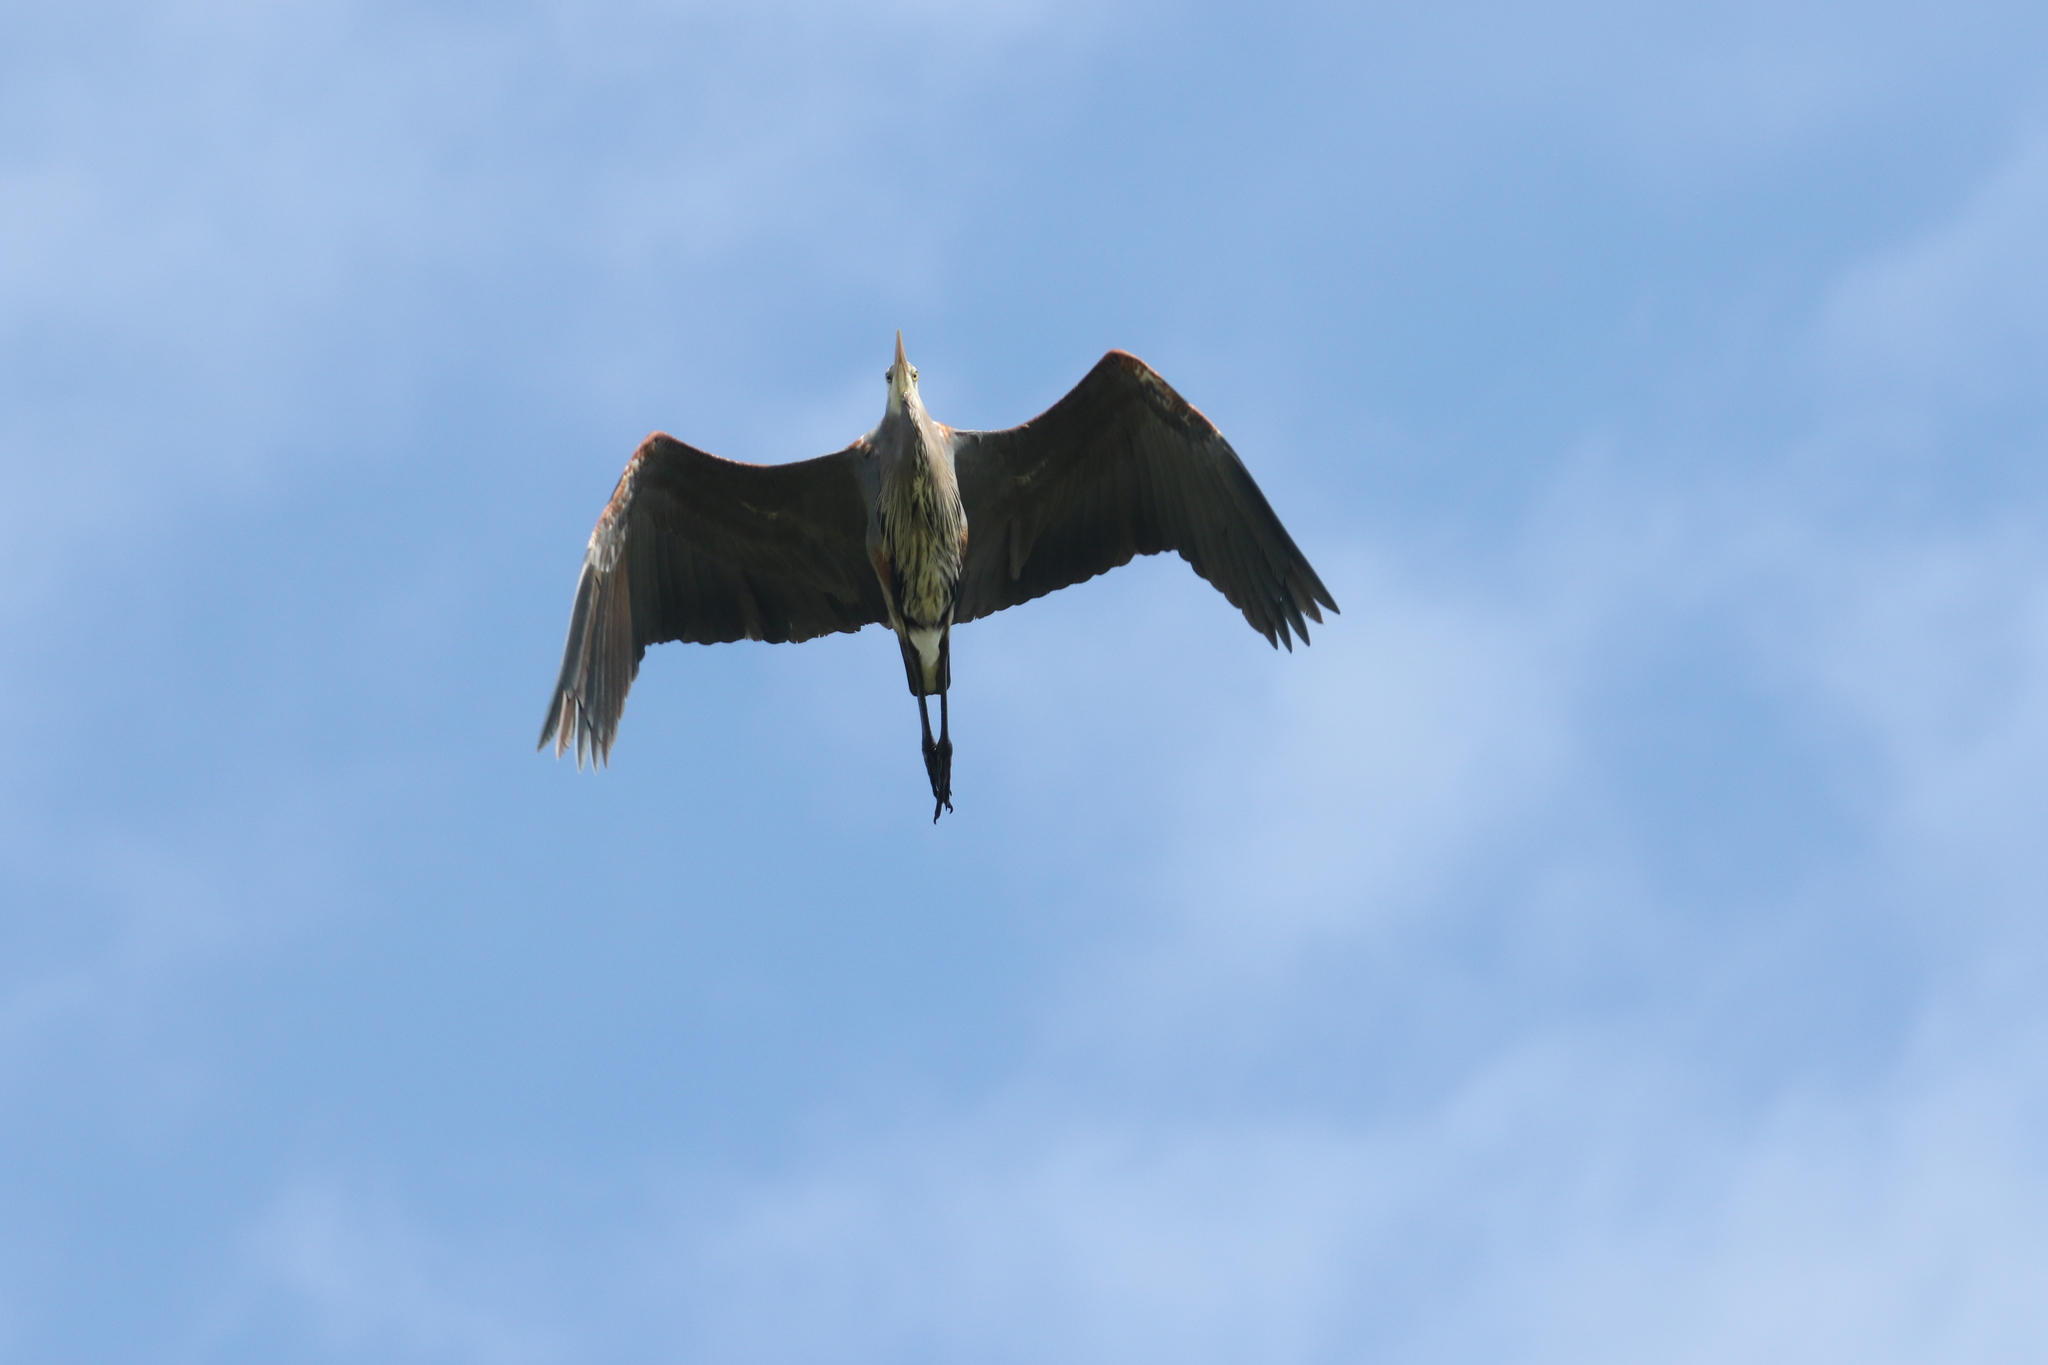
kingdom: Animalia
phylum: Chordata
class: Aves
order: Pelecaniformes
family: Ardeidae
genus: Ardea
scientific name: Ardea herodias
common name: Great blue heron
